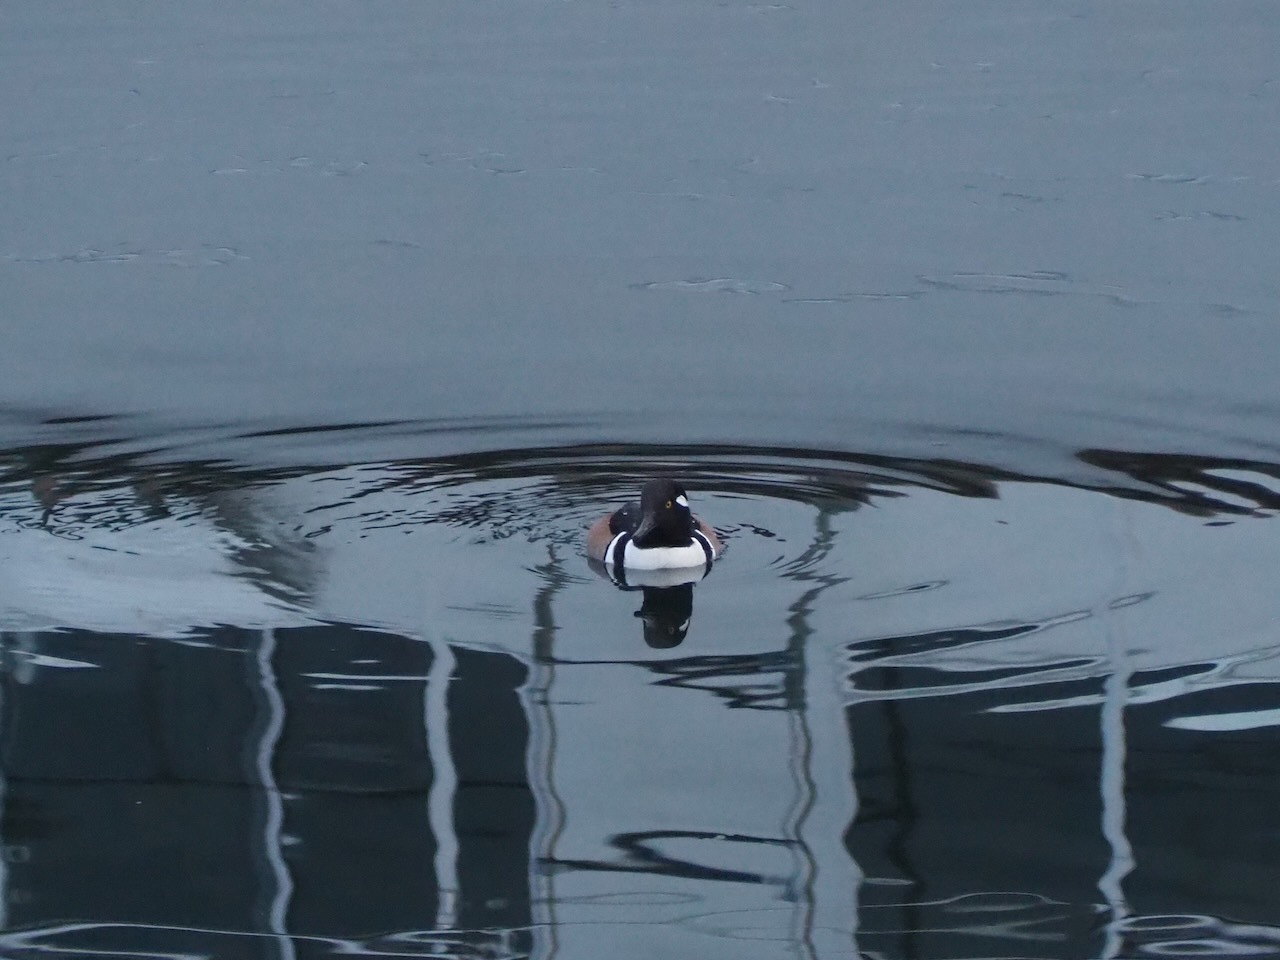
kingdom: Animalia
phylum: Chordata
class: Aves
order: Anseriformes
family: Anatidae
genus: Lophodytes
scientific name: Lophodytes cucullatus
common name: Hooded merganser
